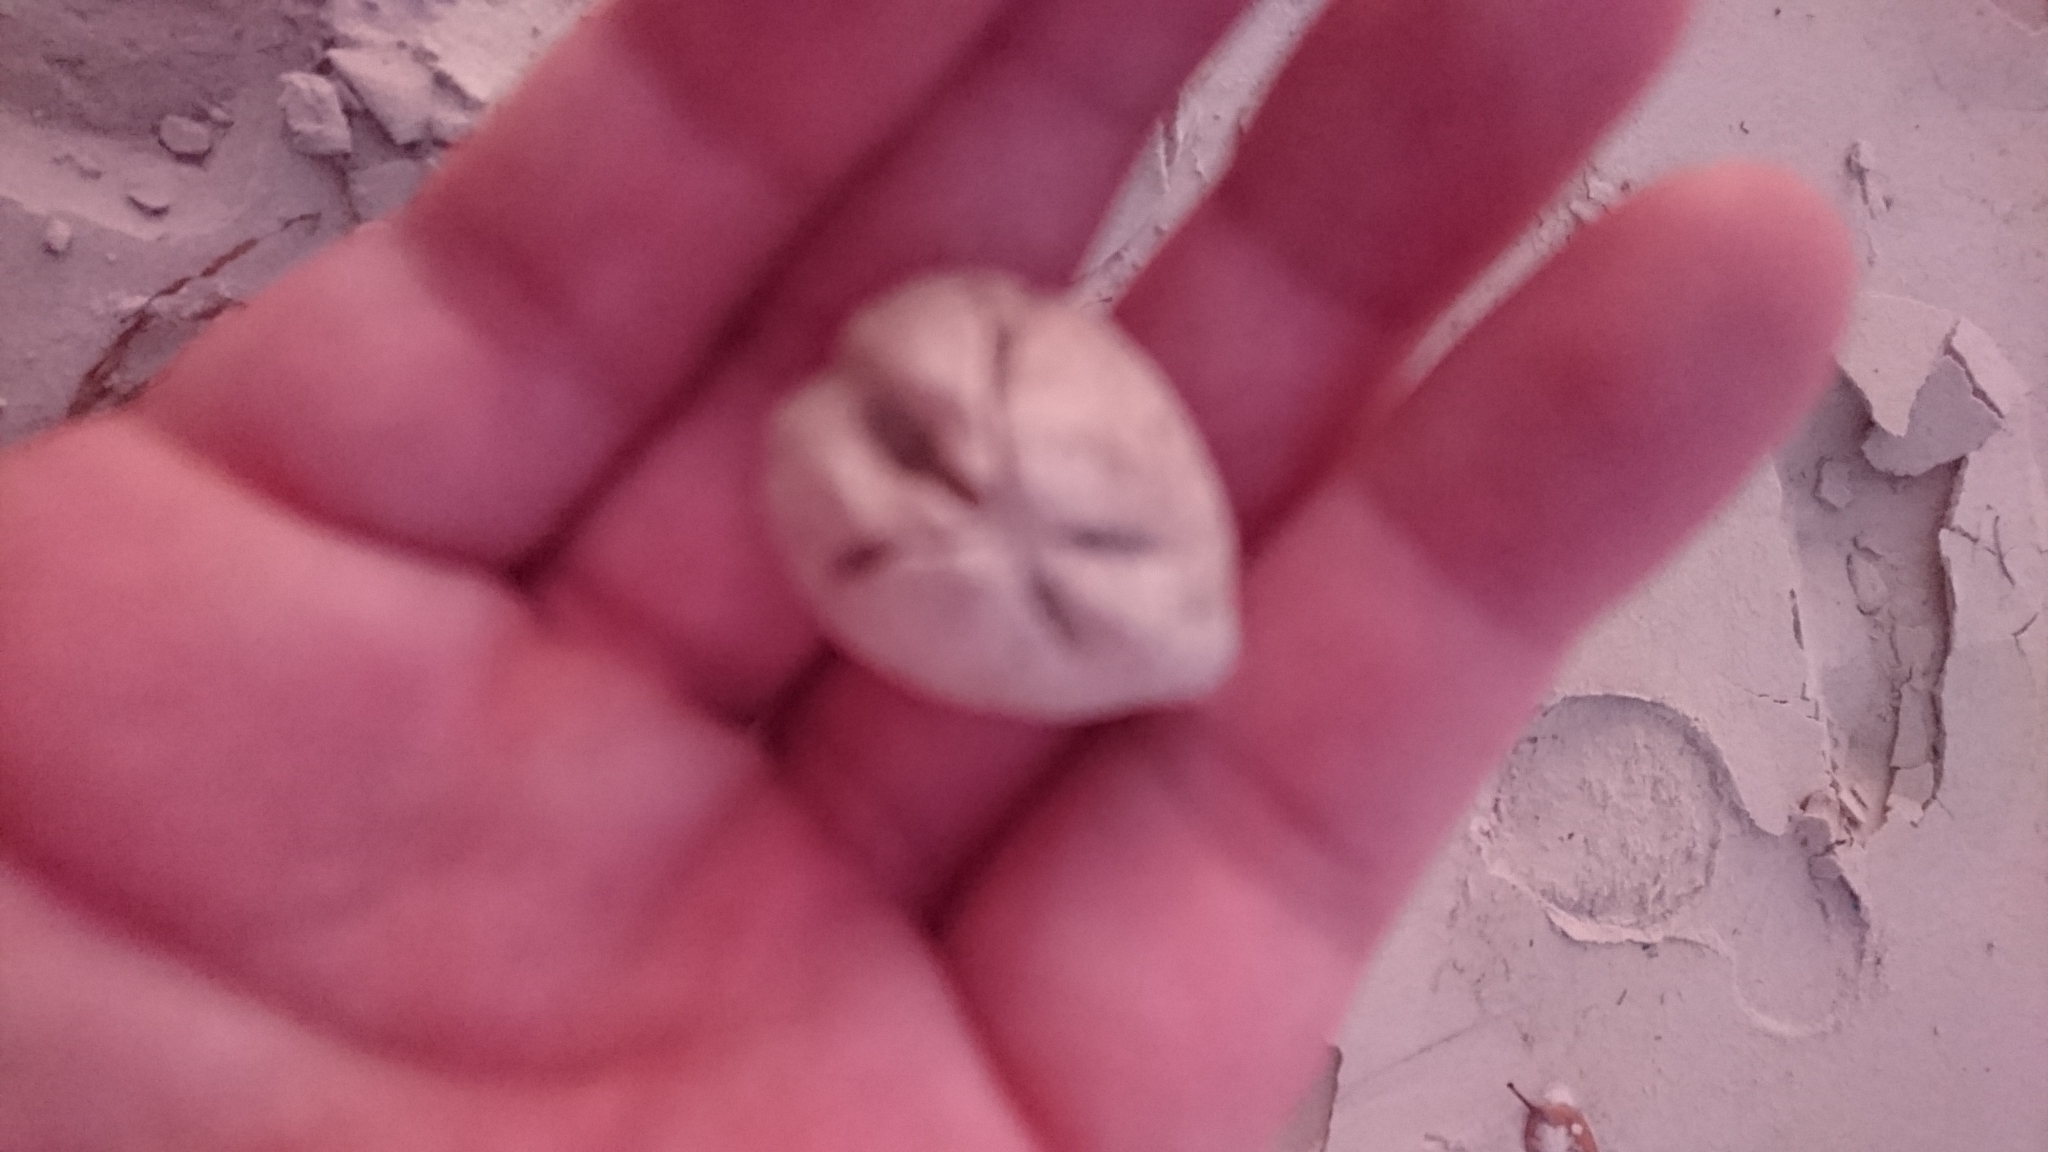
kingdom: Animalia
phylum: Echinodermata
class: Echinoidea
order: Spatangoida
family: Schizasteridae
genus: Moira
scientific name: Moira lethe
